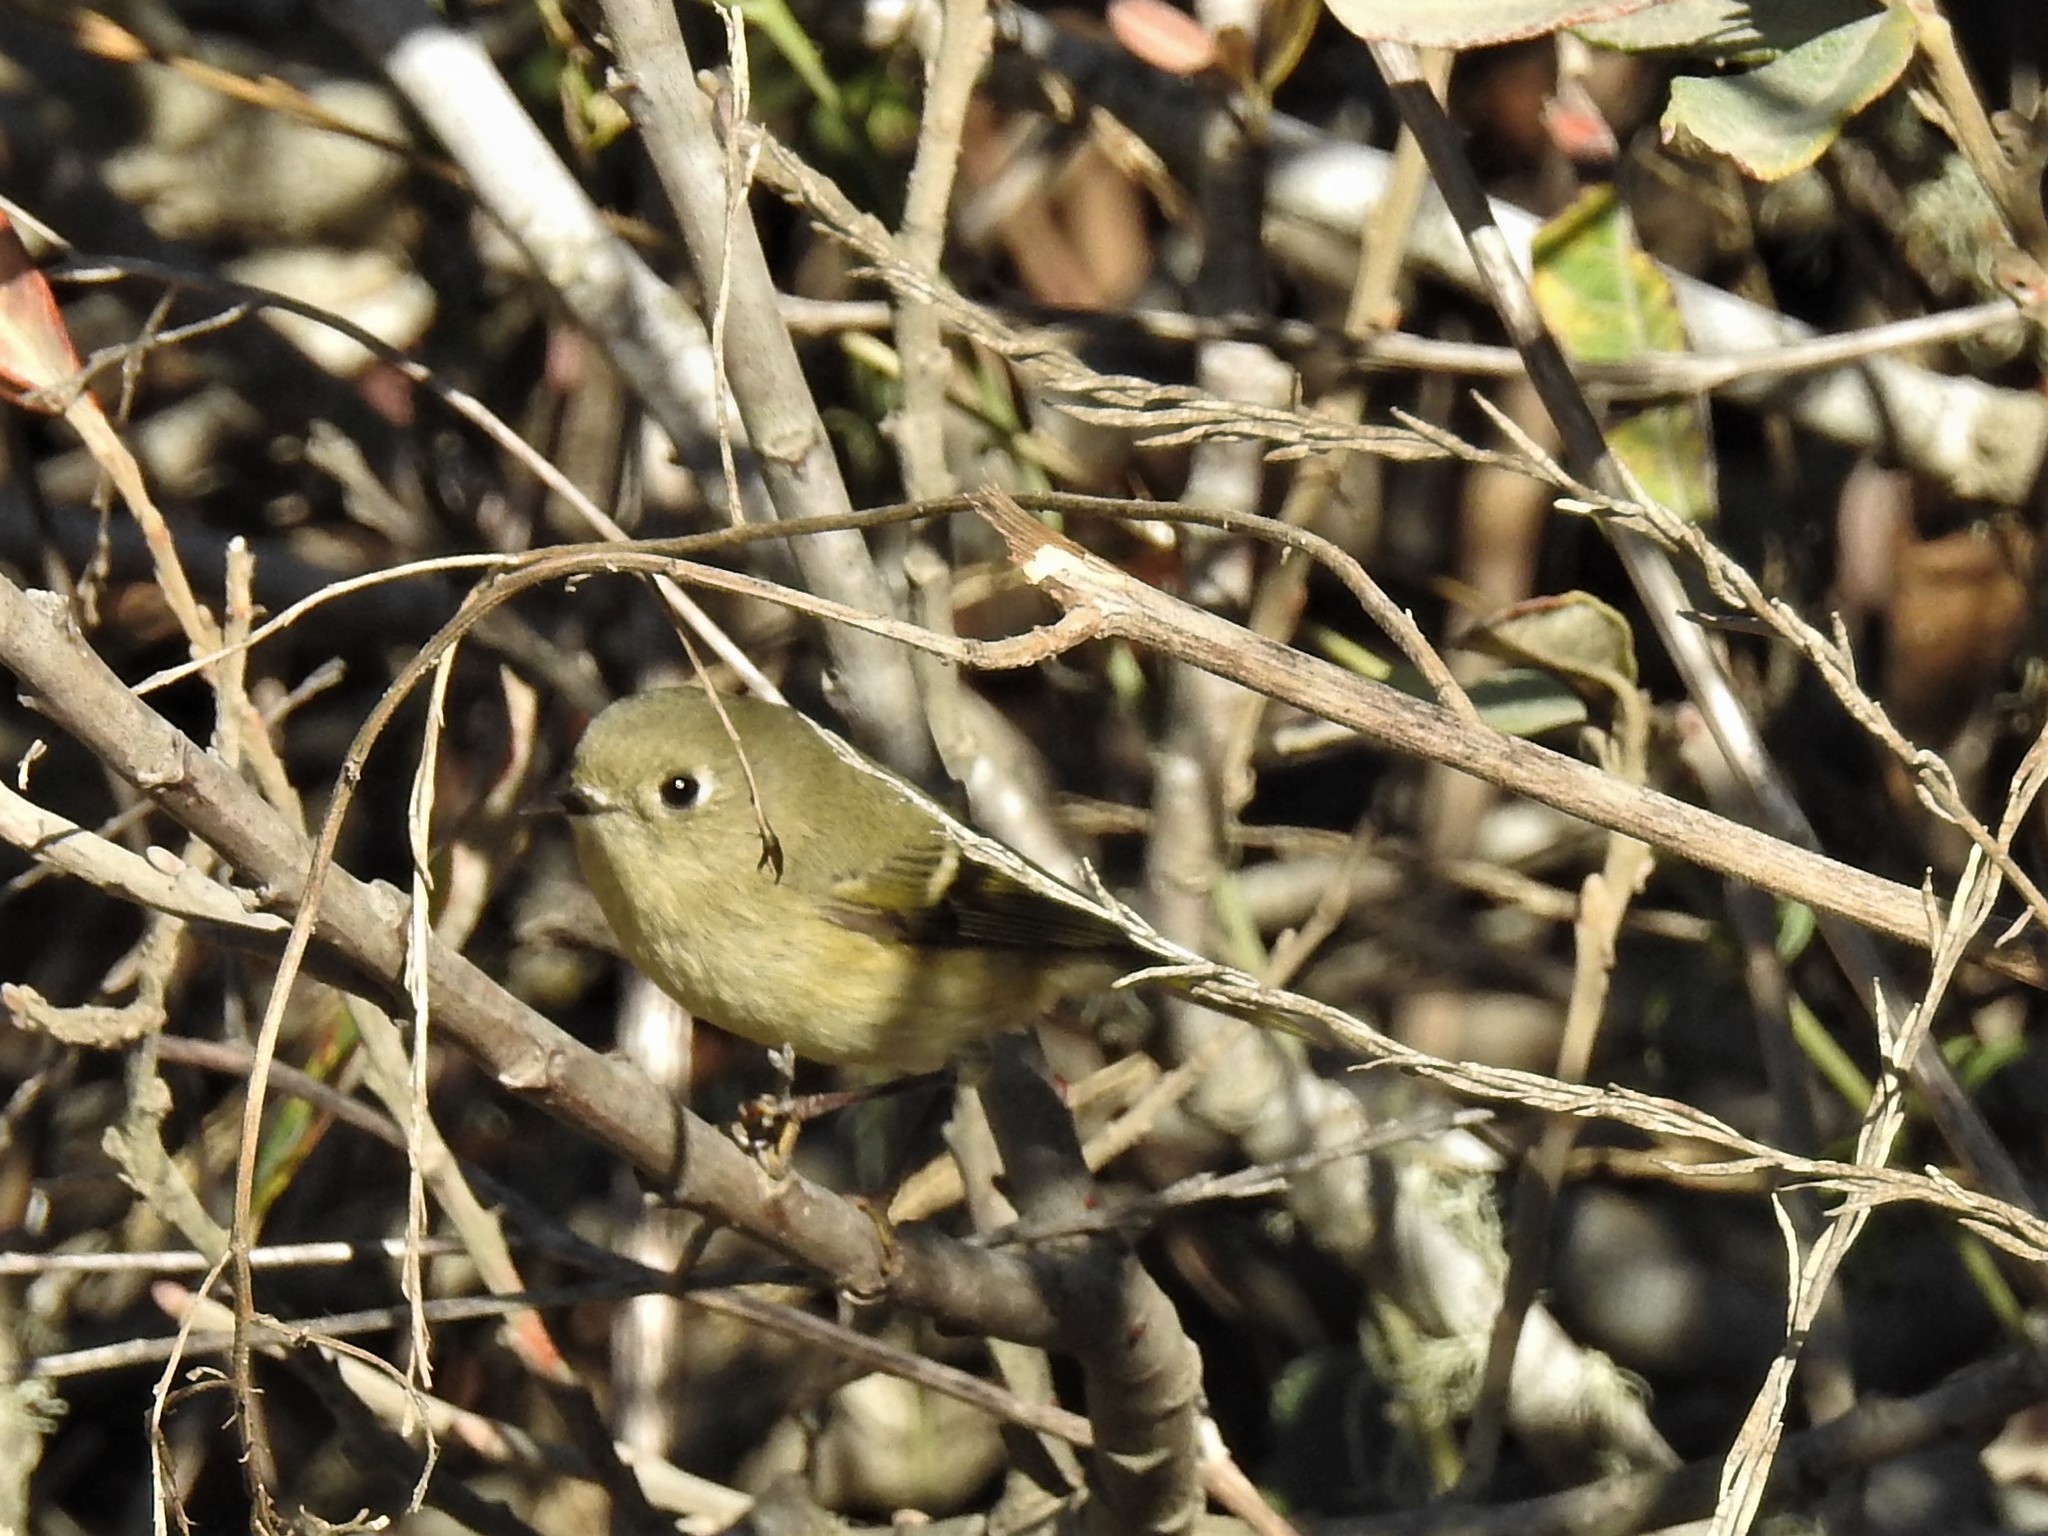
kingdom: Animalia
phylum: Chordata
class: Aves
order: Passeriformes
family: Regulidae
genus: Regulus
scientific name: Regulus calendula
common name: Ruby-crowned kinglet
